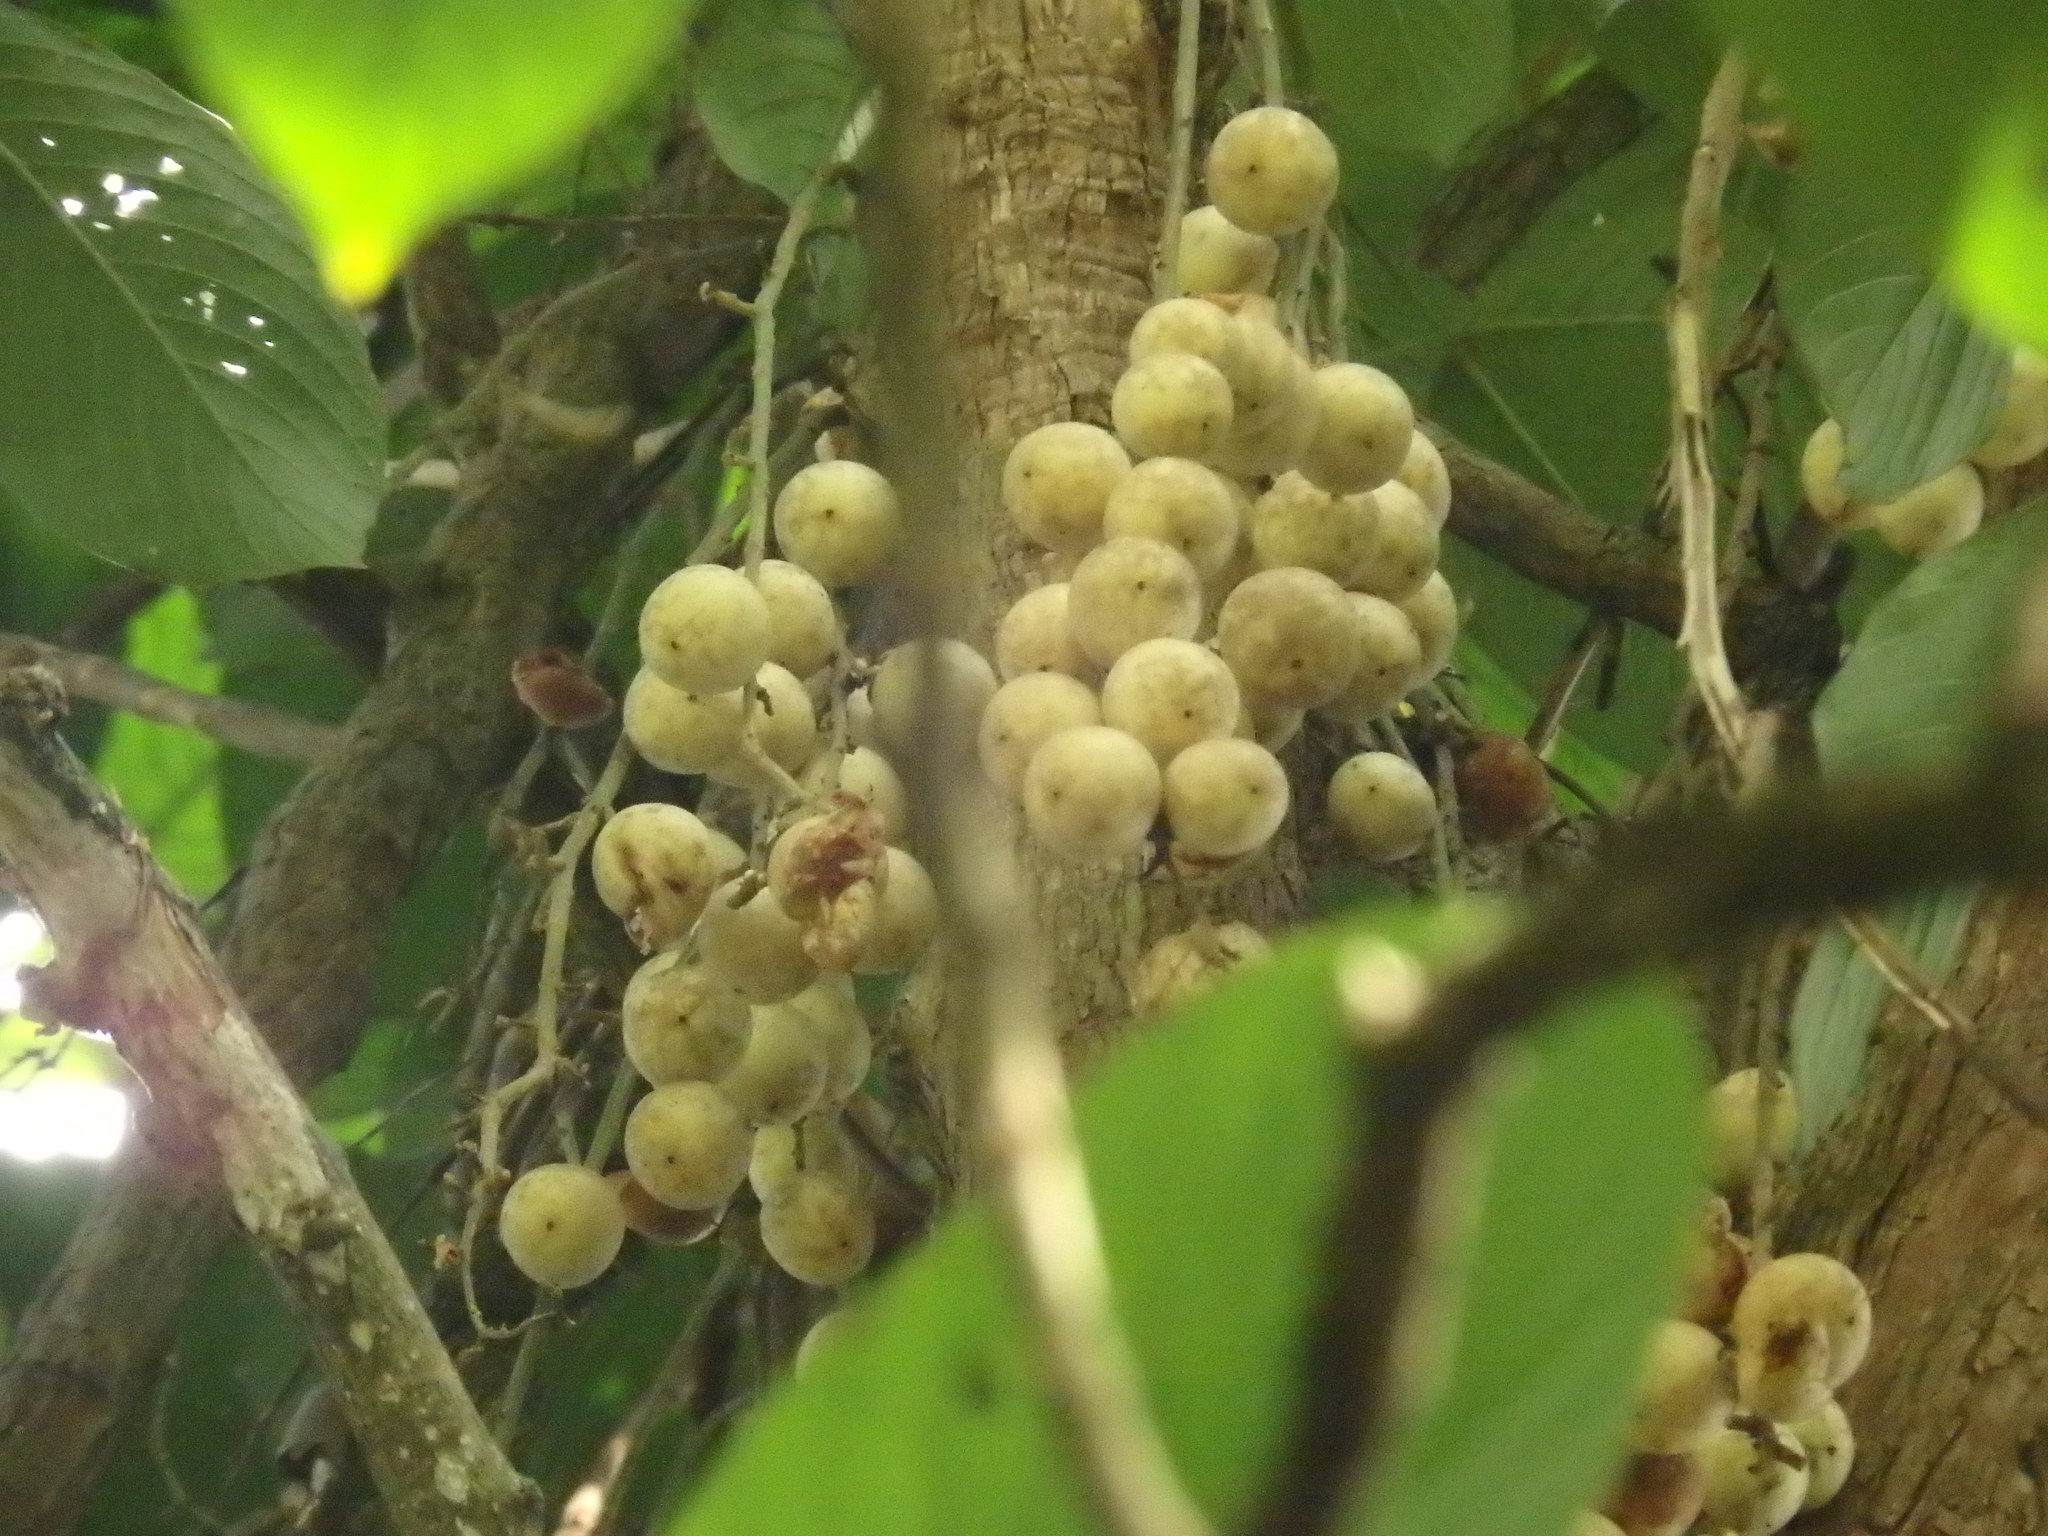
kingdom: Plantae
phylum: Tracheophyta
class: Magnoliopsida
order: Malpighiales
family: Phyllanthaceae
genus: Baccaurea
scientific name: Baccaurea motleyana
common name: Rambai
